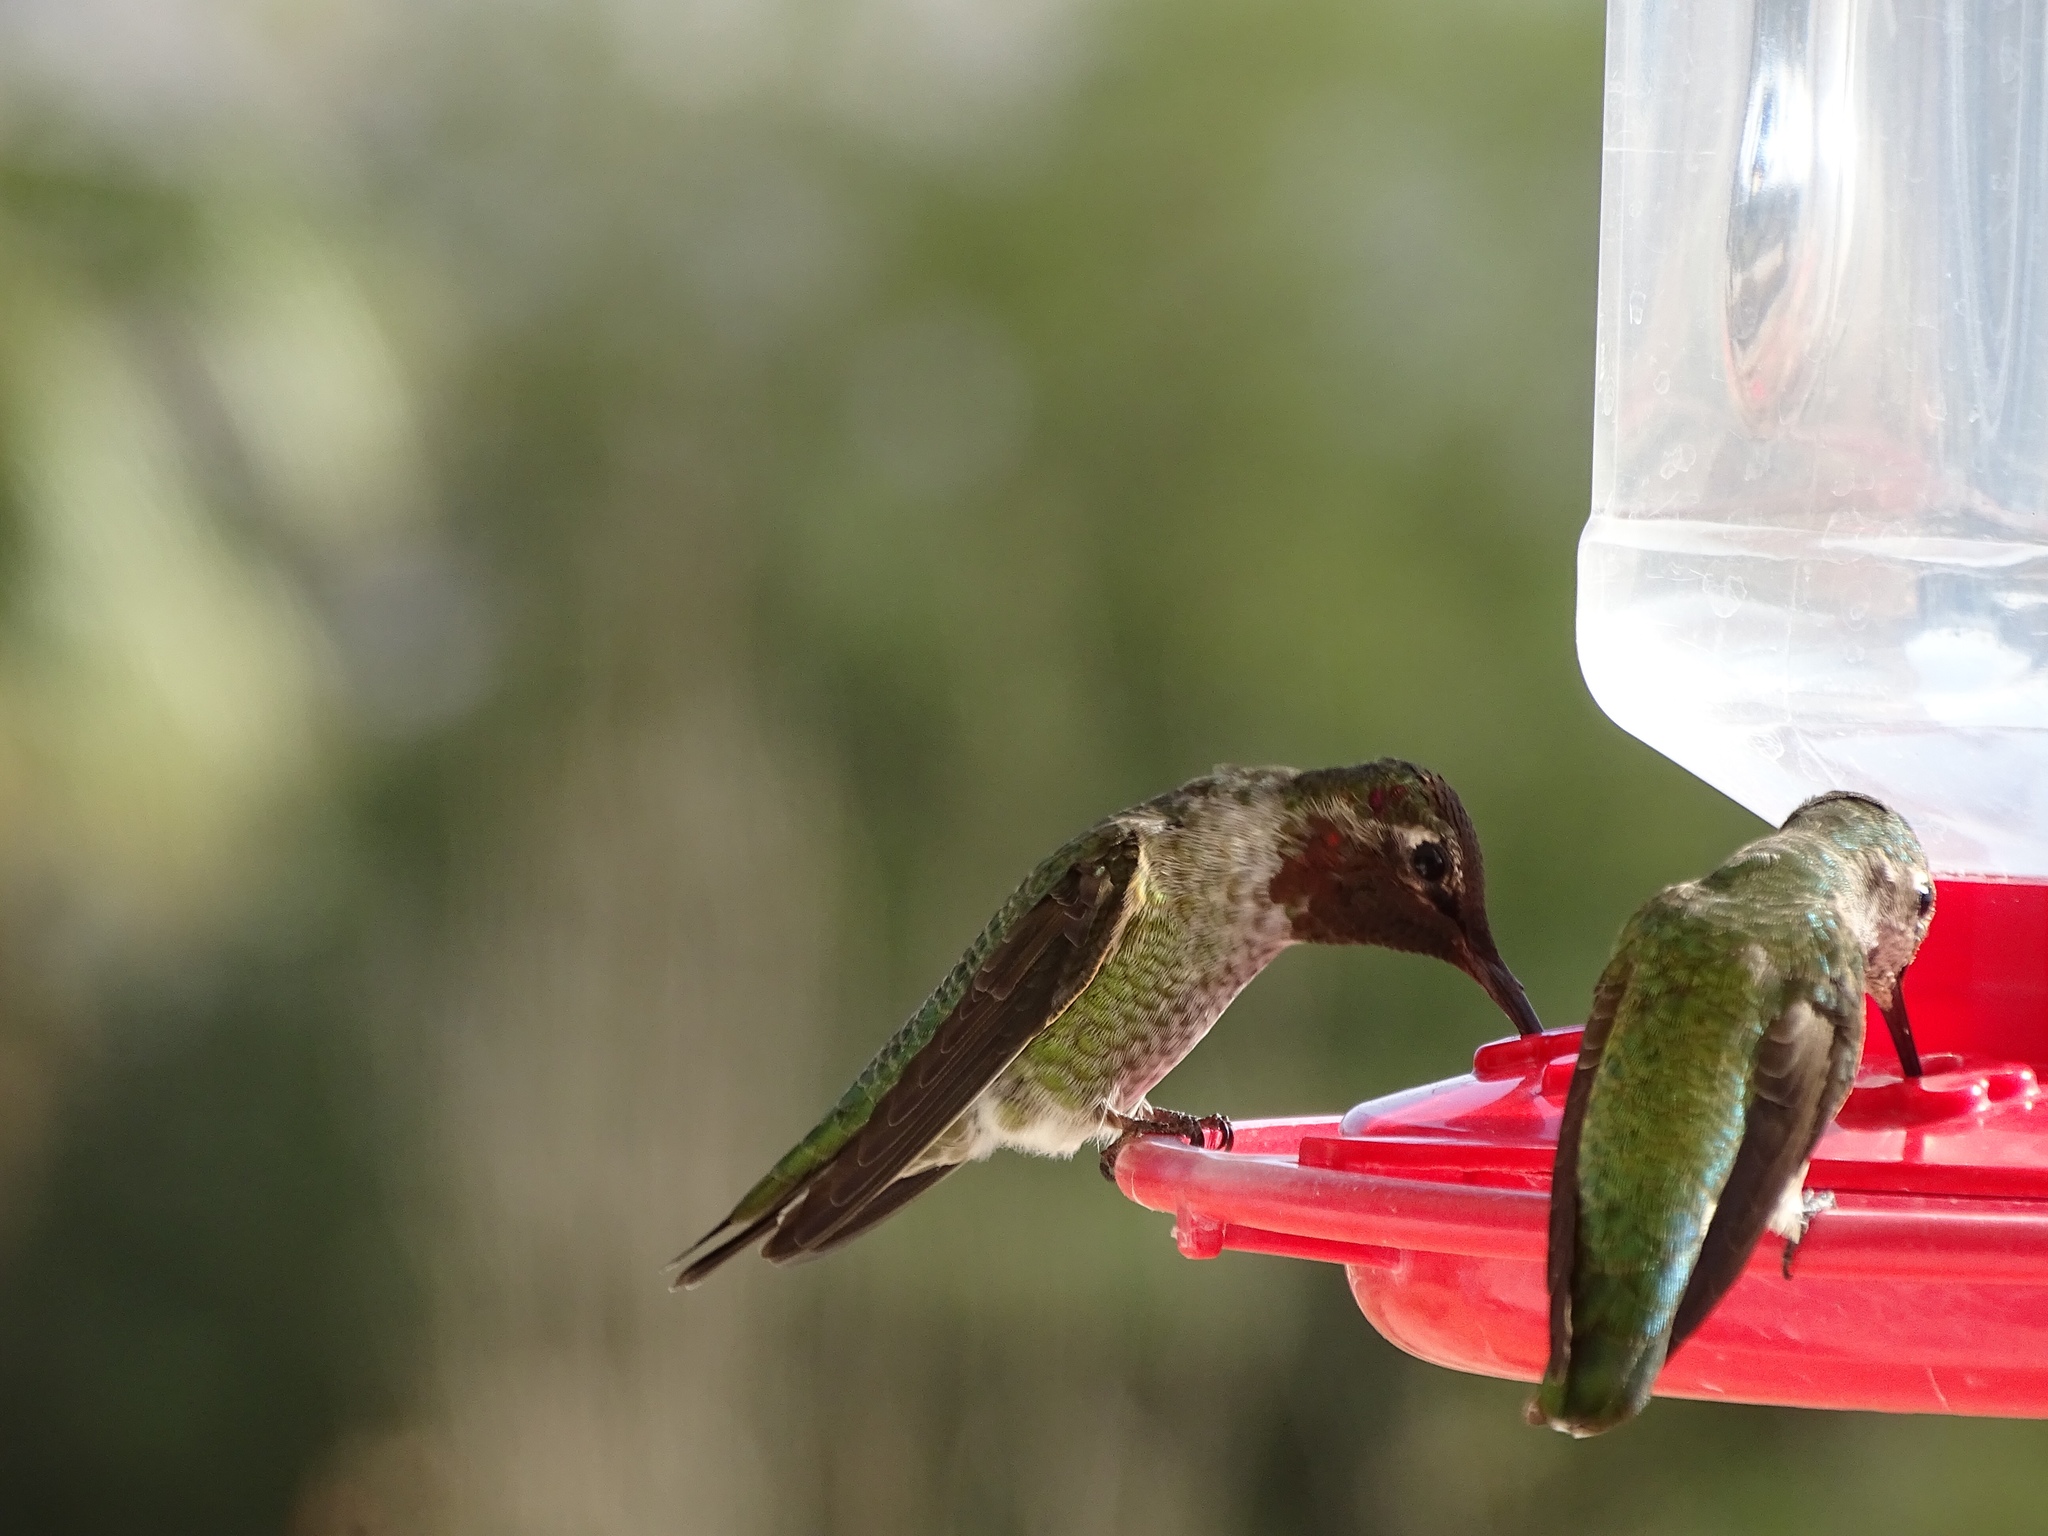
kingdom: Animalia
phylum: Chordata
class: Aves
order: Apodiformes
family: Trochilidae
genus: Calypte
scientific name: Calypte anna
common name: Anna's hummingbird
